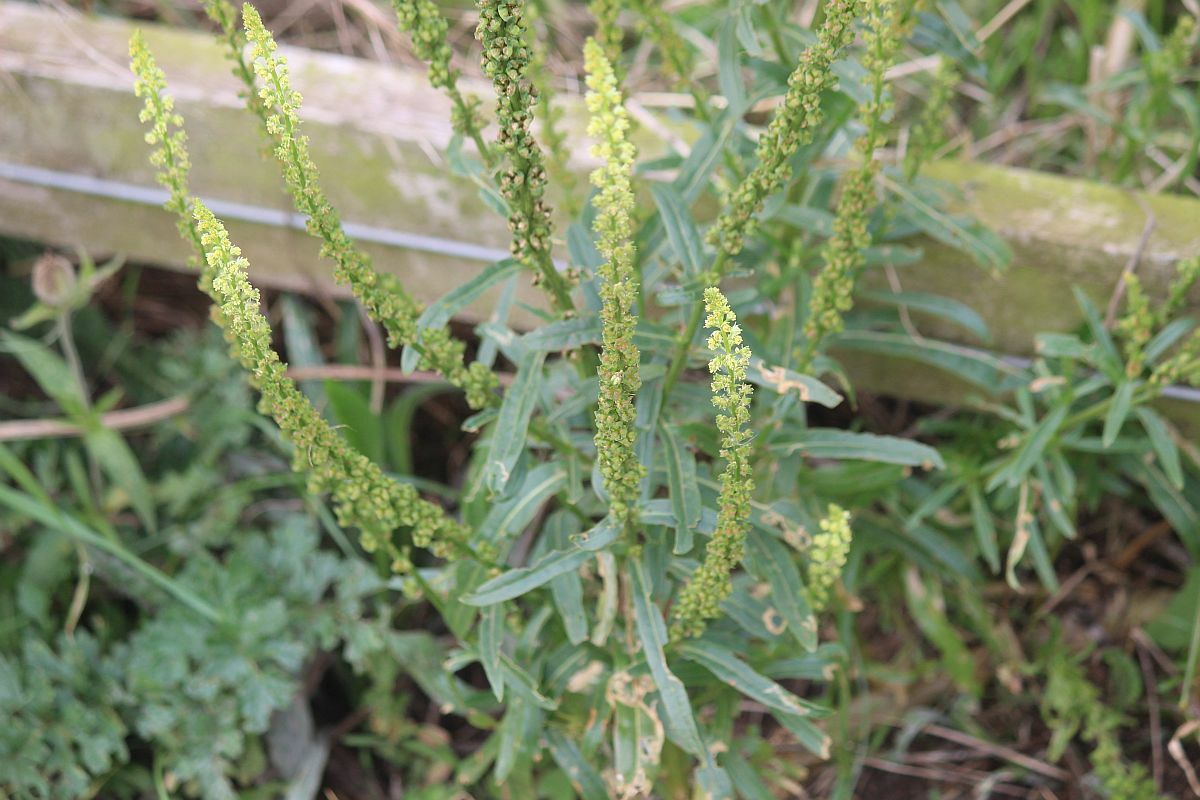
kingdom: Plantae
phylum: Tracheophyta
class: Magnoliopsida
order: Brassicales
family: Resedaceae
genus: Reseda
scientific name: Reseda luteola
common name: Weld
